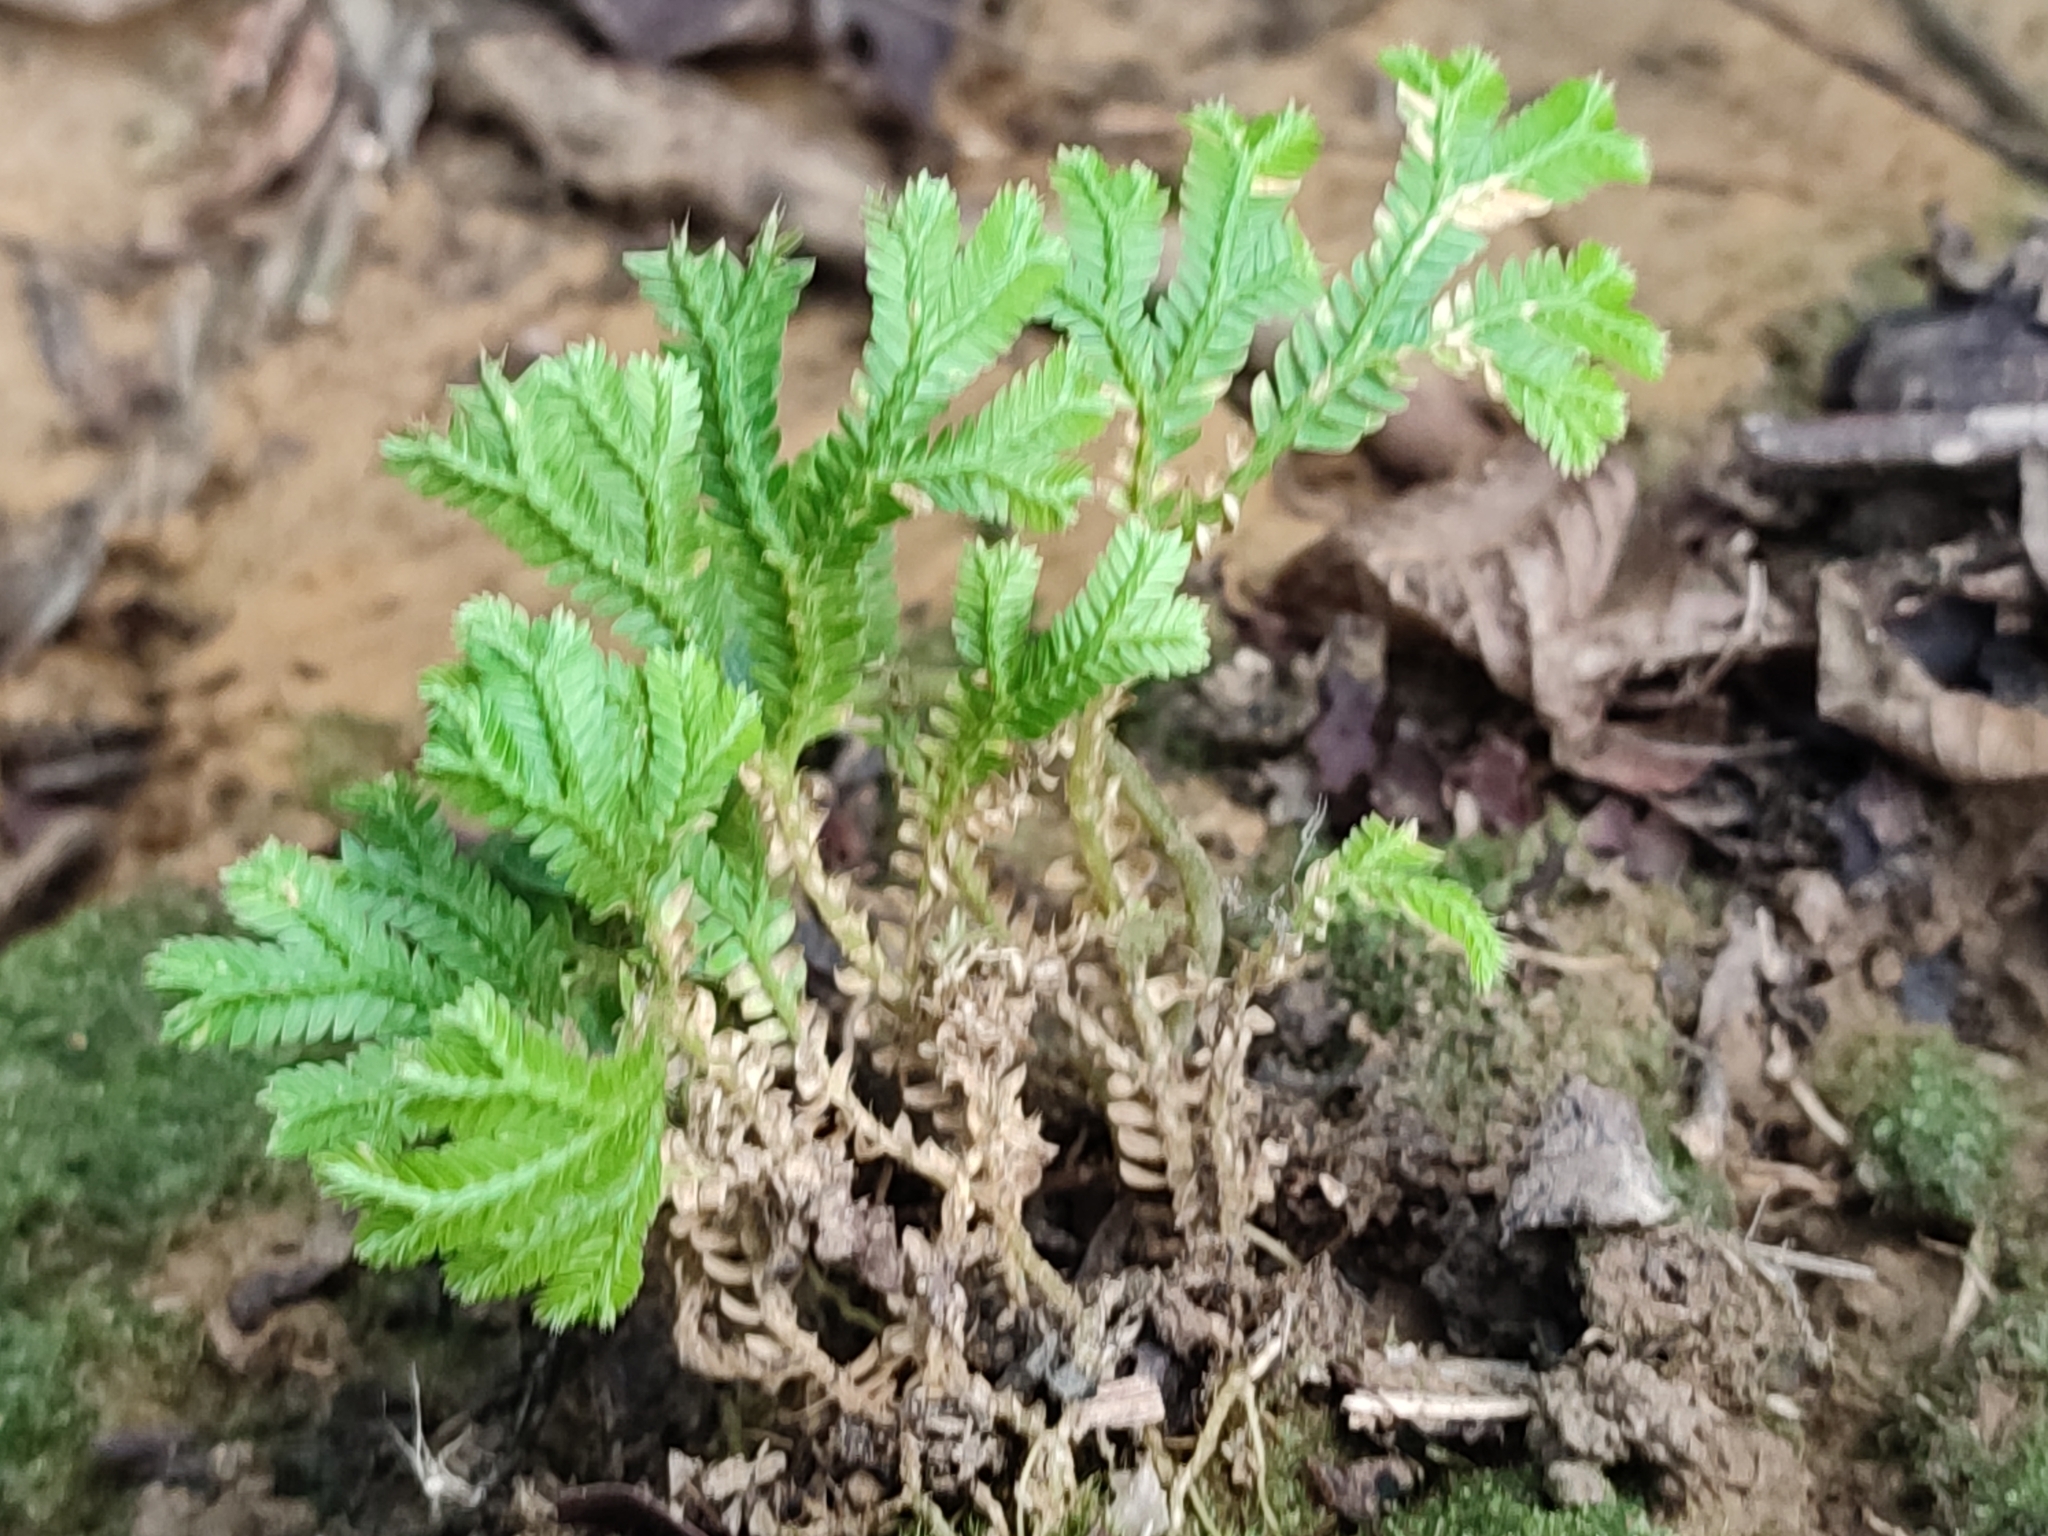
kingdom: Plantae
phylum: Tracheophyta
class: Lycopodiopsida
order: Selaginellales
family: Selaginellaceae
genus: Selaginella
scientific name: Selaginella doederleinii
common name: Greater selaginella
